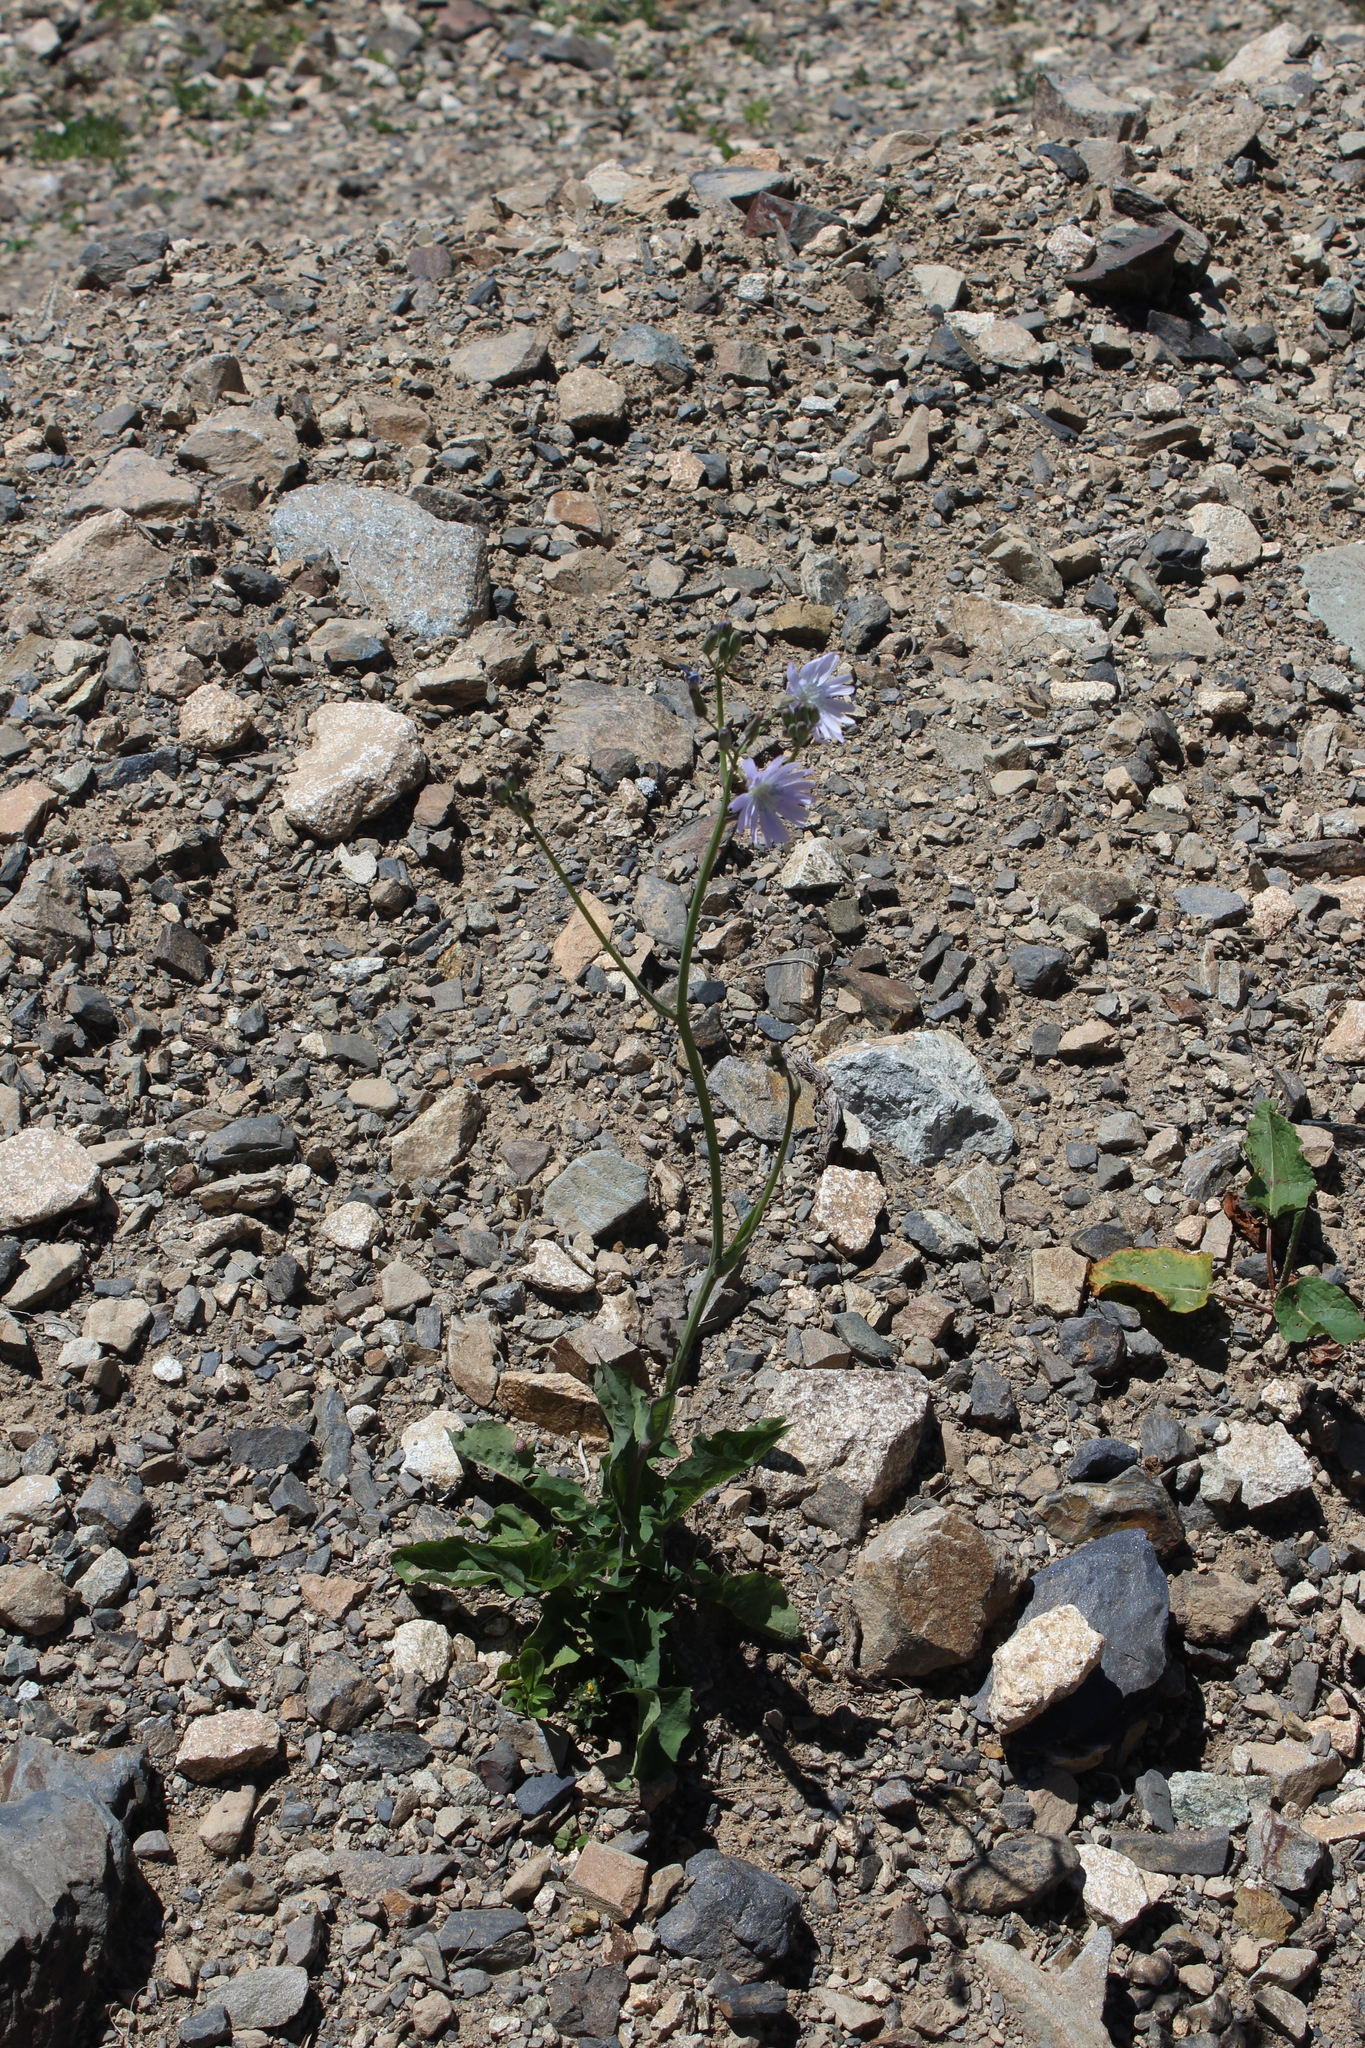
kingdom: Plantae
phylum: Tracheophyta
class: Magnoliopsida
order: Asterales
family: Asteraceae
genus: Lactuca
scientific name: Lactuca racemosa
